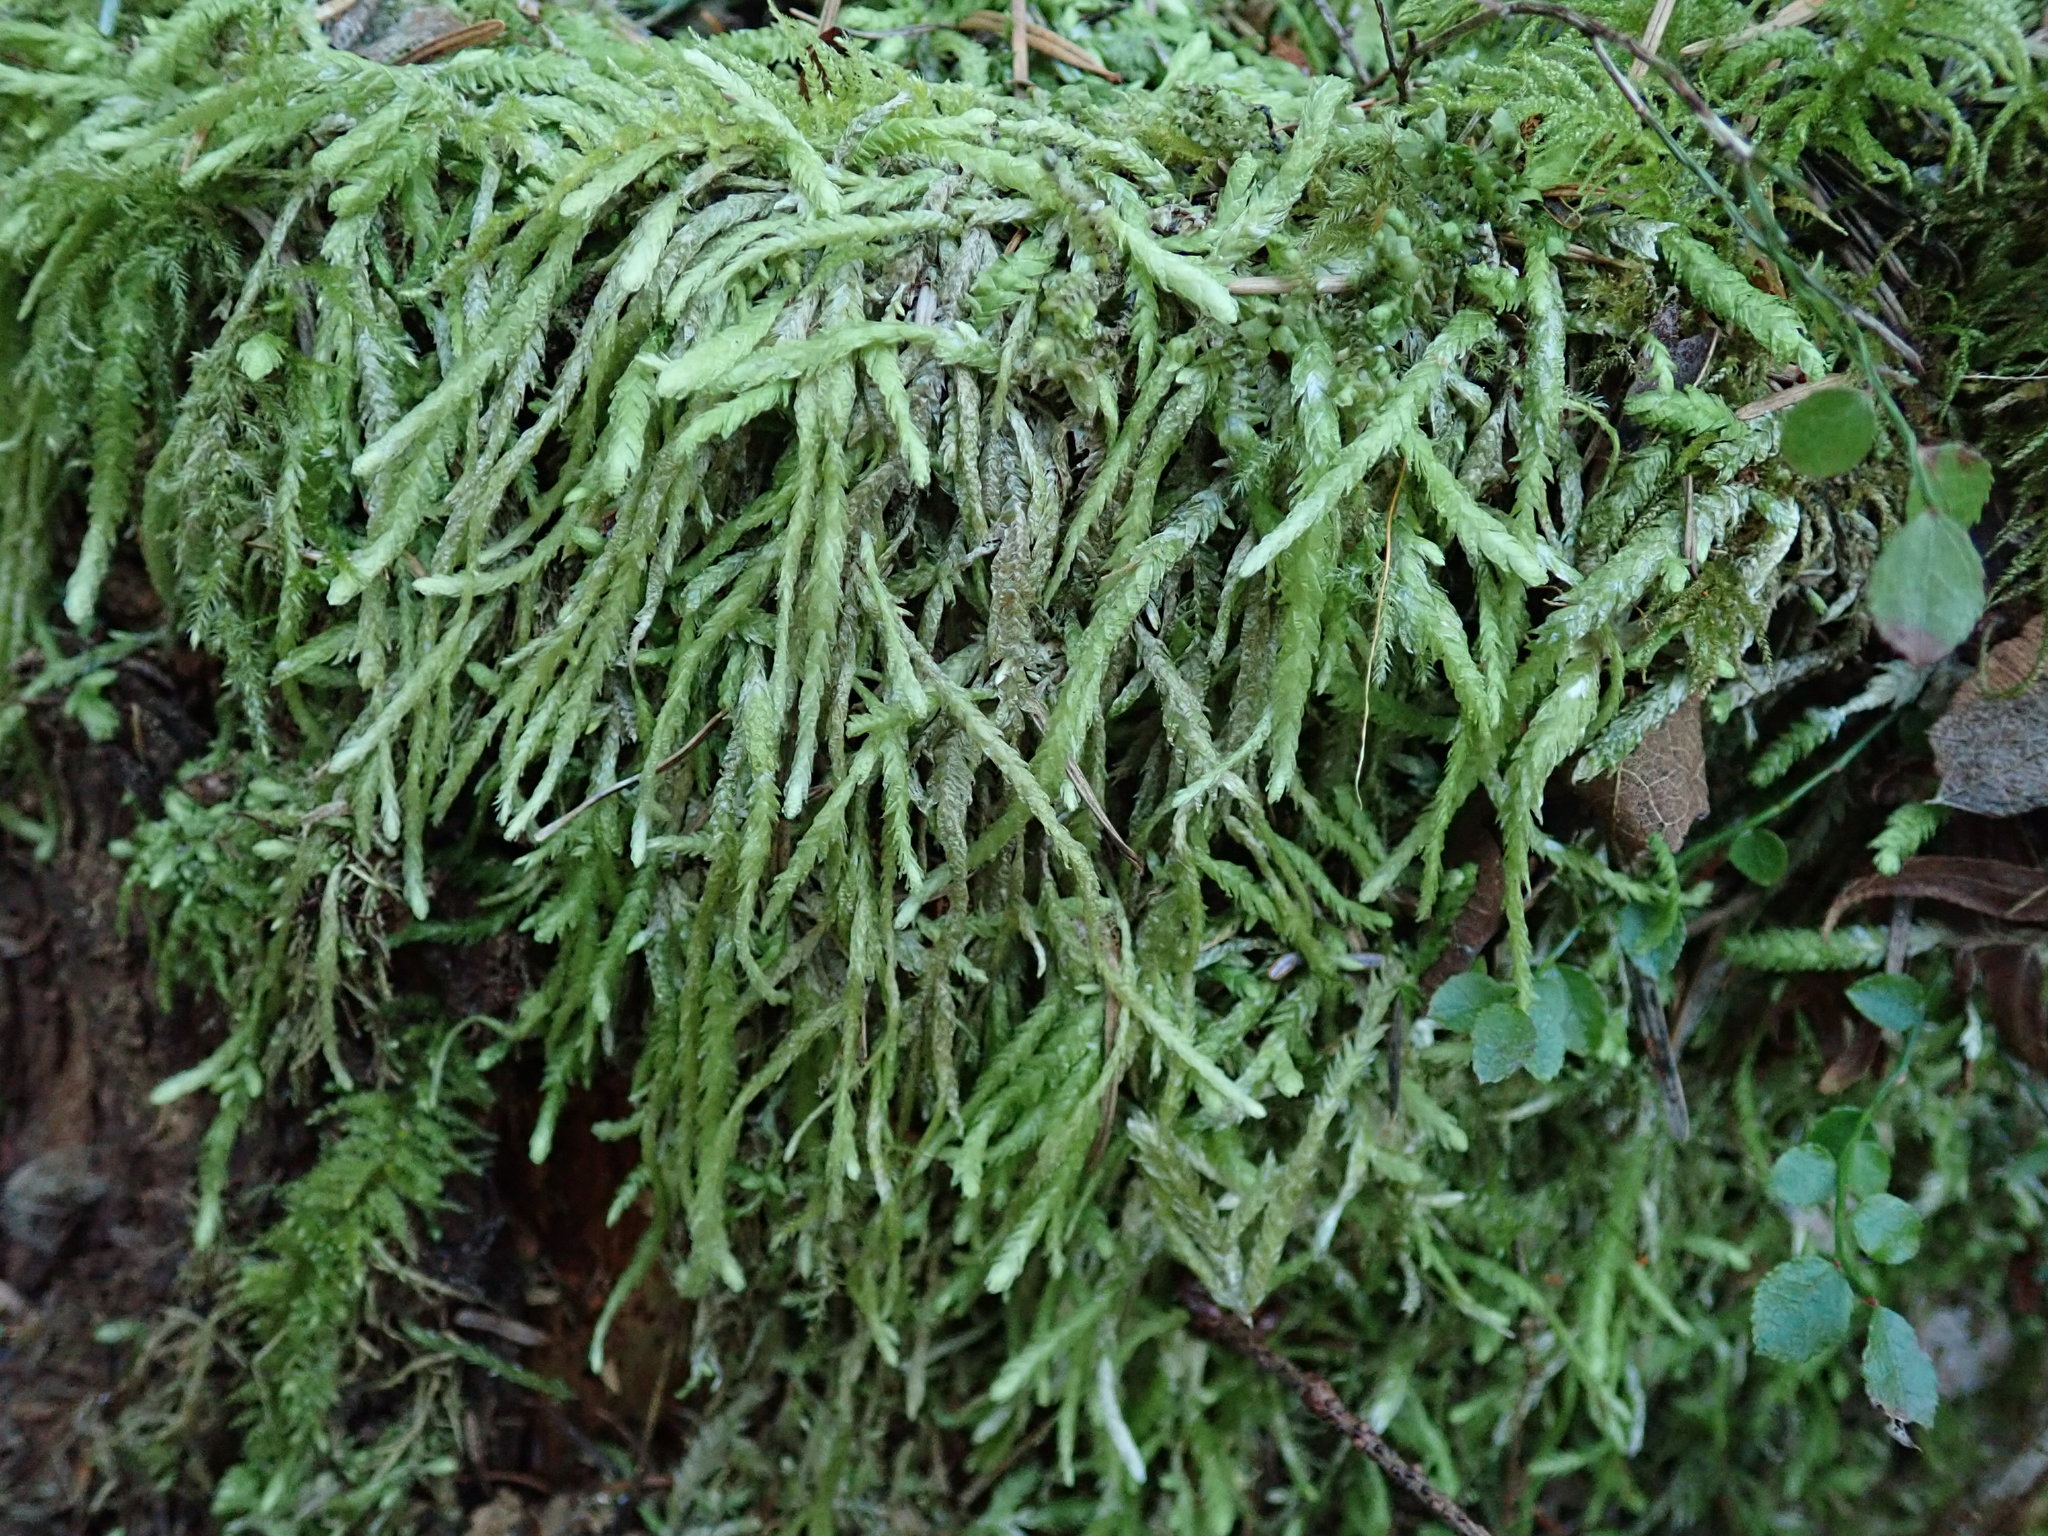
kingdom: Plantae
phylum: Bryophyta
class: Bryopsida
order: Hypnales
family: Plagiotheciaceae
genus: Plagiothecium
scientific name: Plagiothecium undulatum
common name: Waved silk-moss
